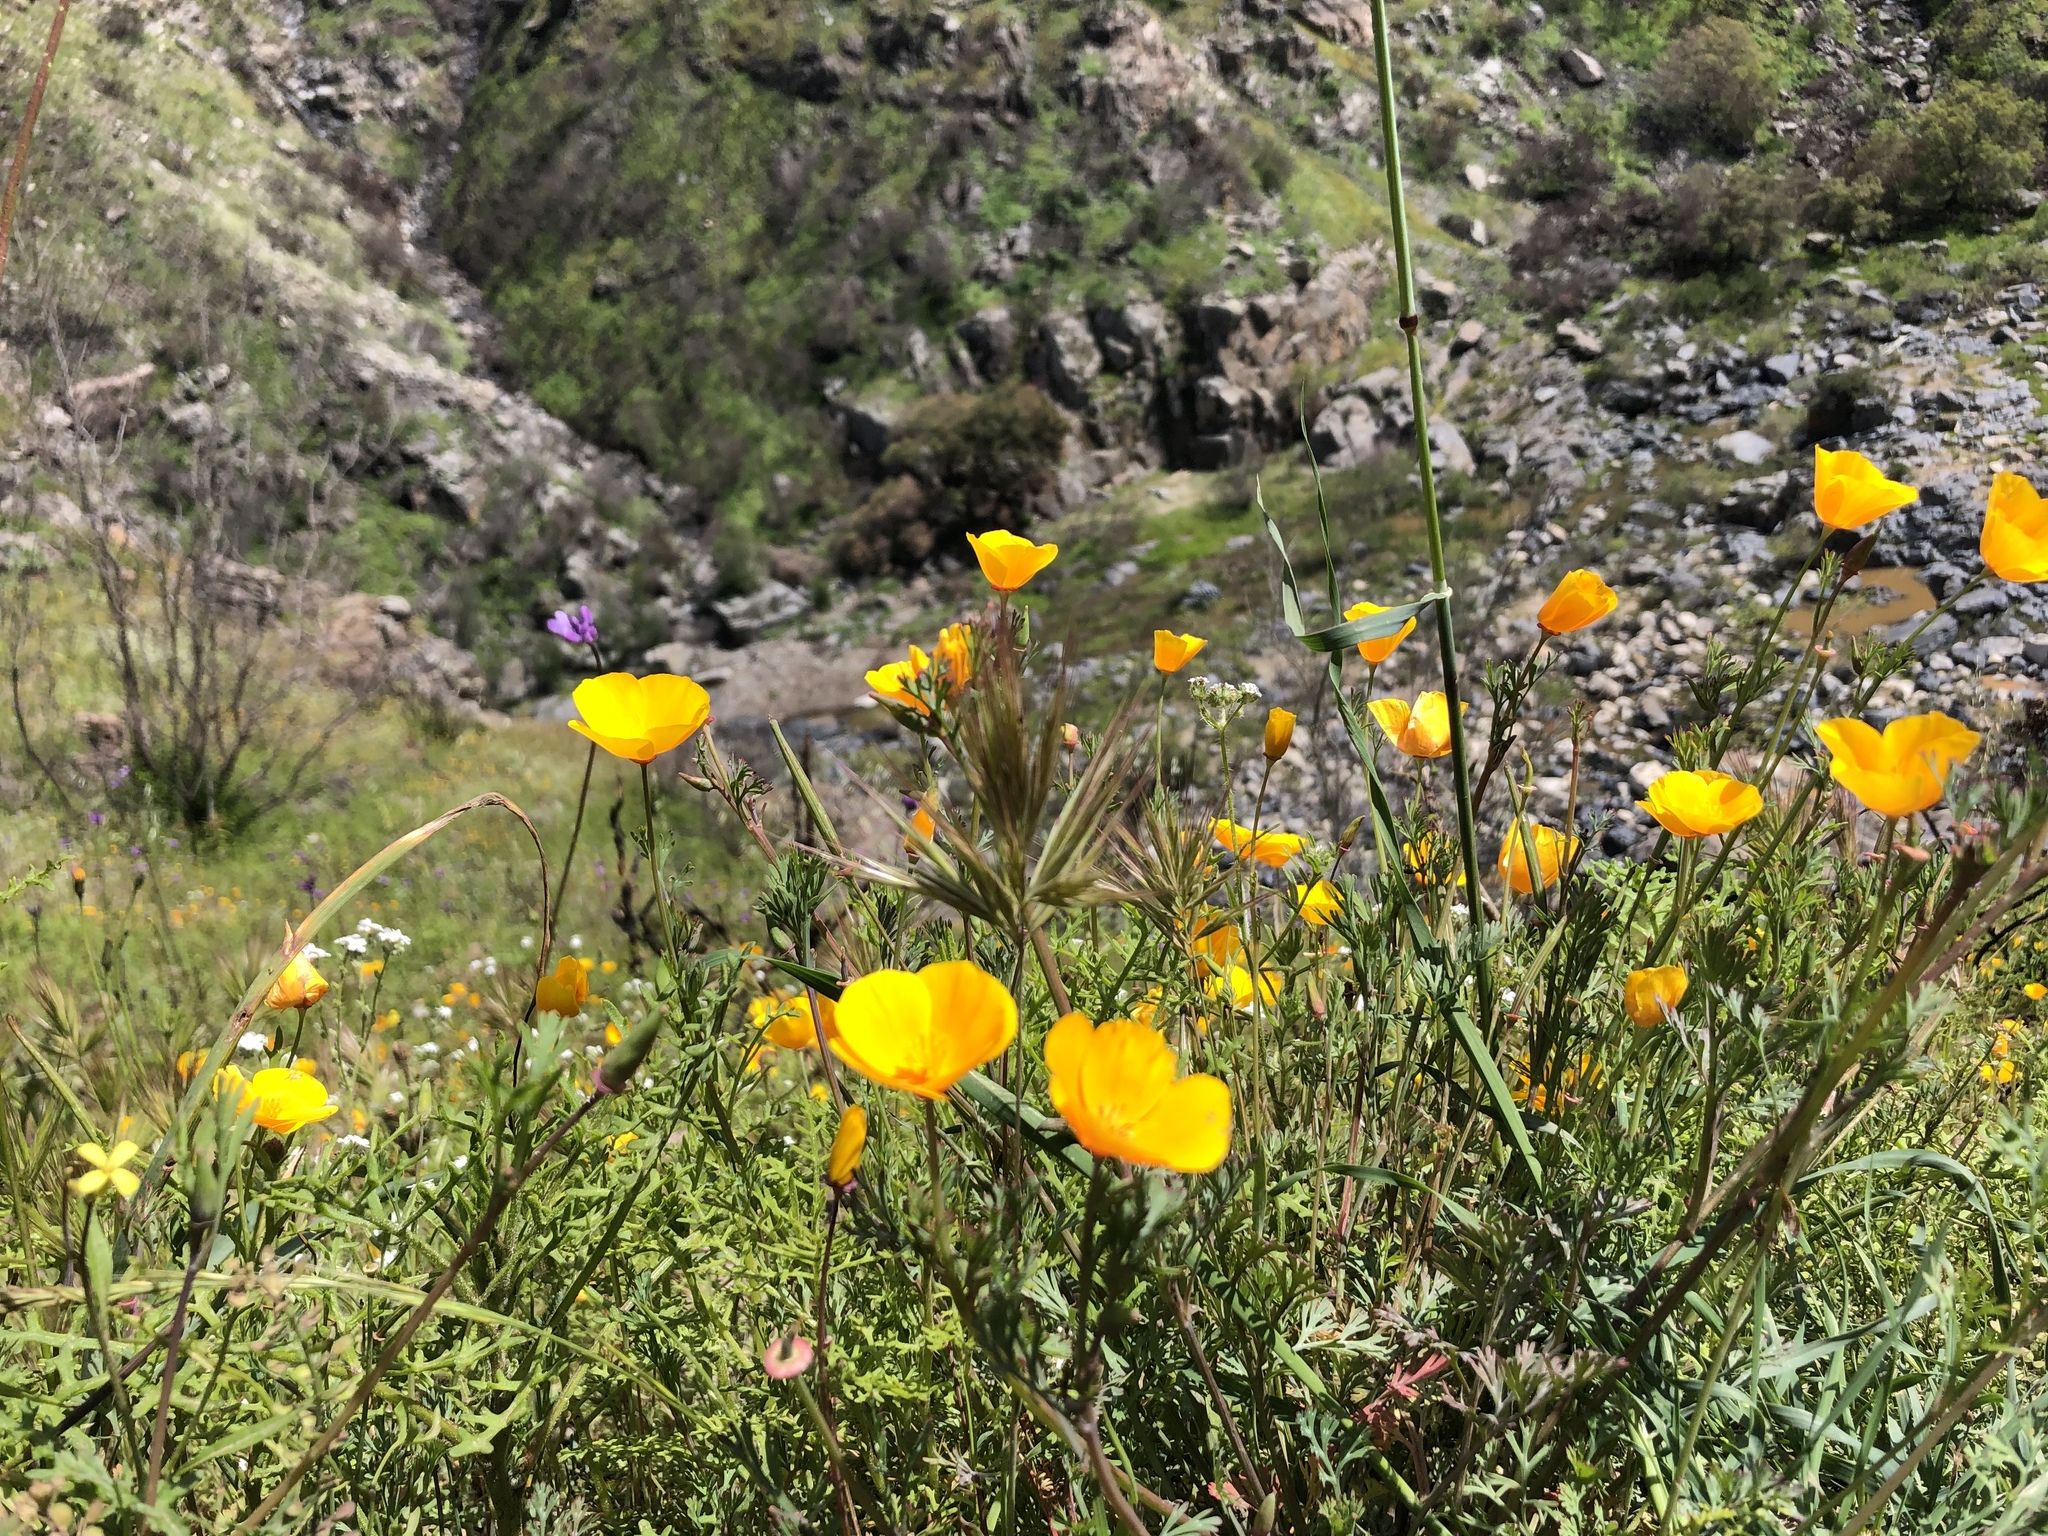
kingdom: Plantae
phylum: Tracheophyta
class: Magnoliopsida
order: Ranunculales
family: Papaveraceae
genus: Eschscholzia
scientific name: Eschscholzia californica
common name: California poppy
